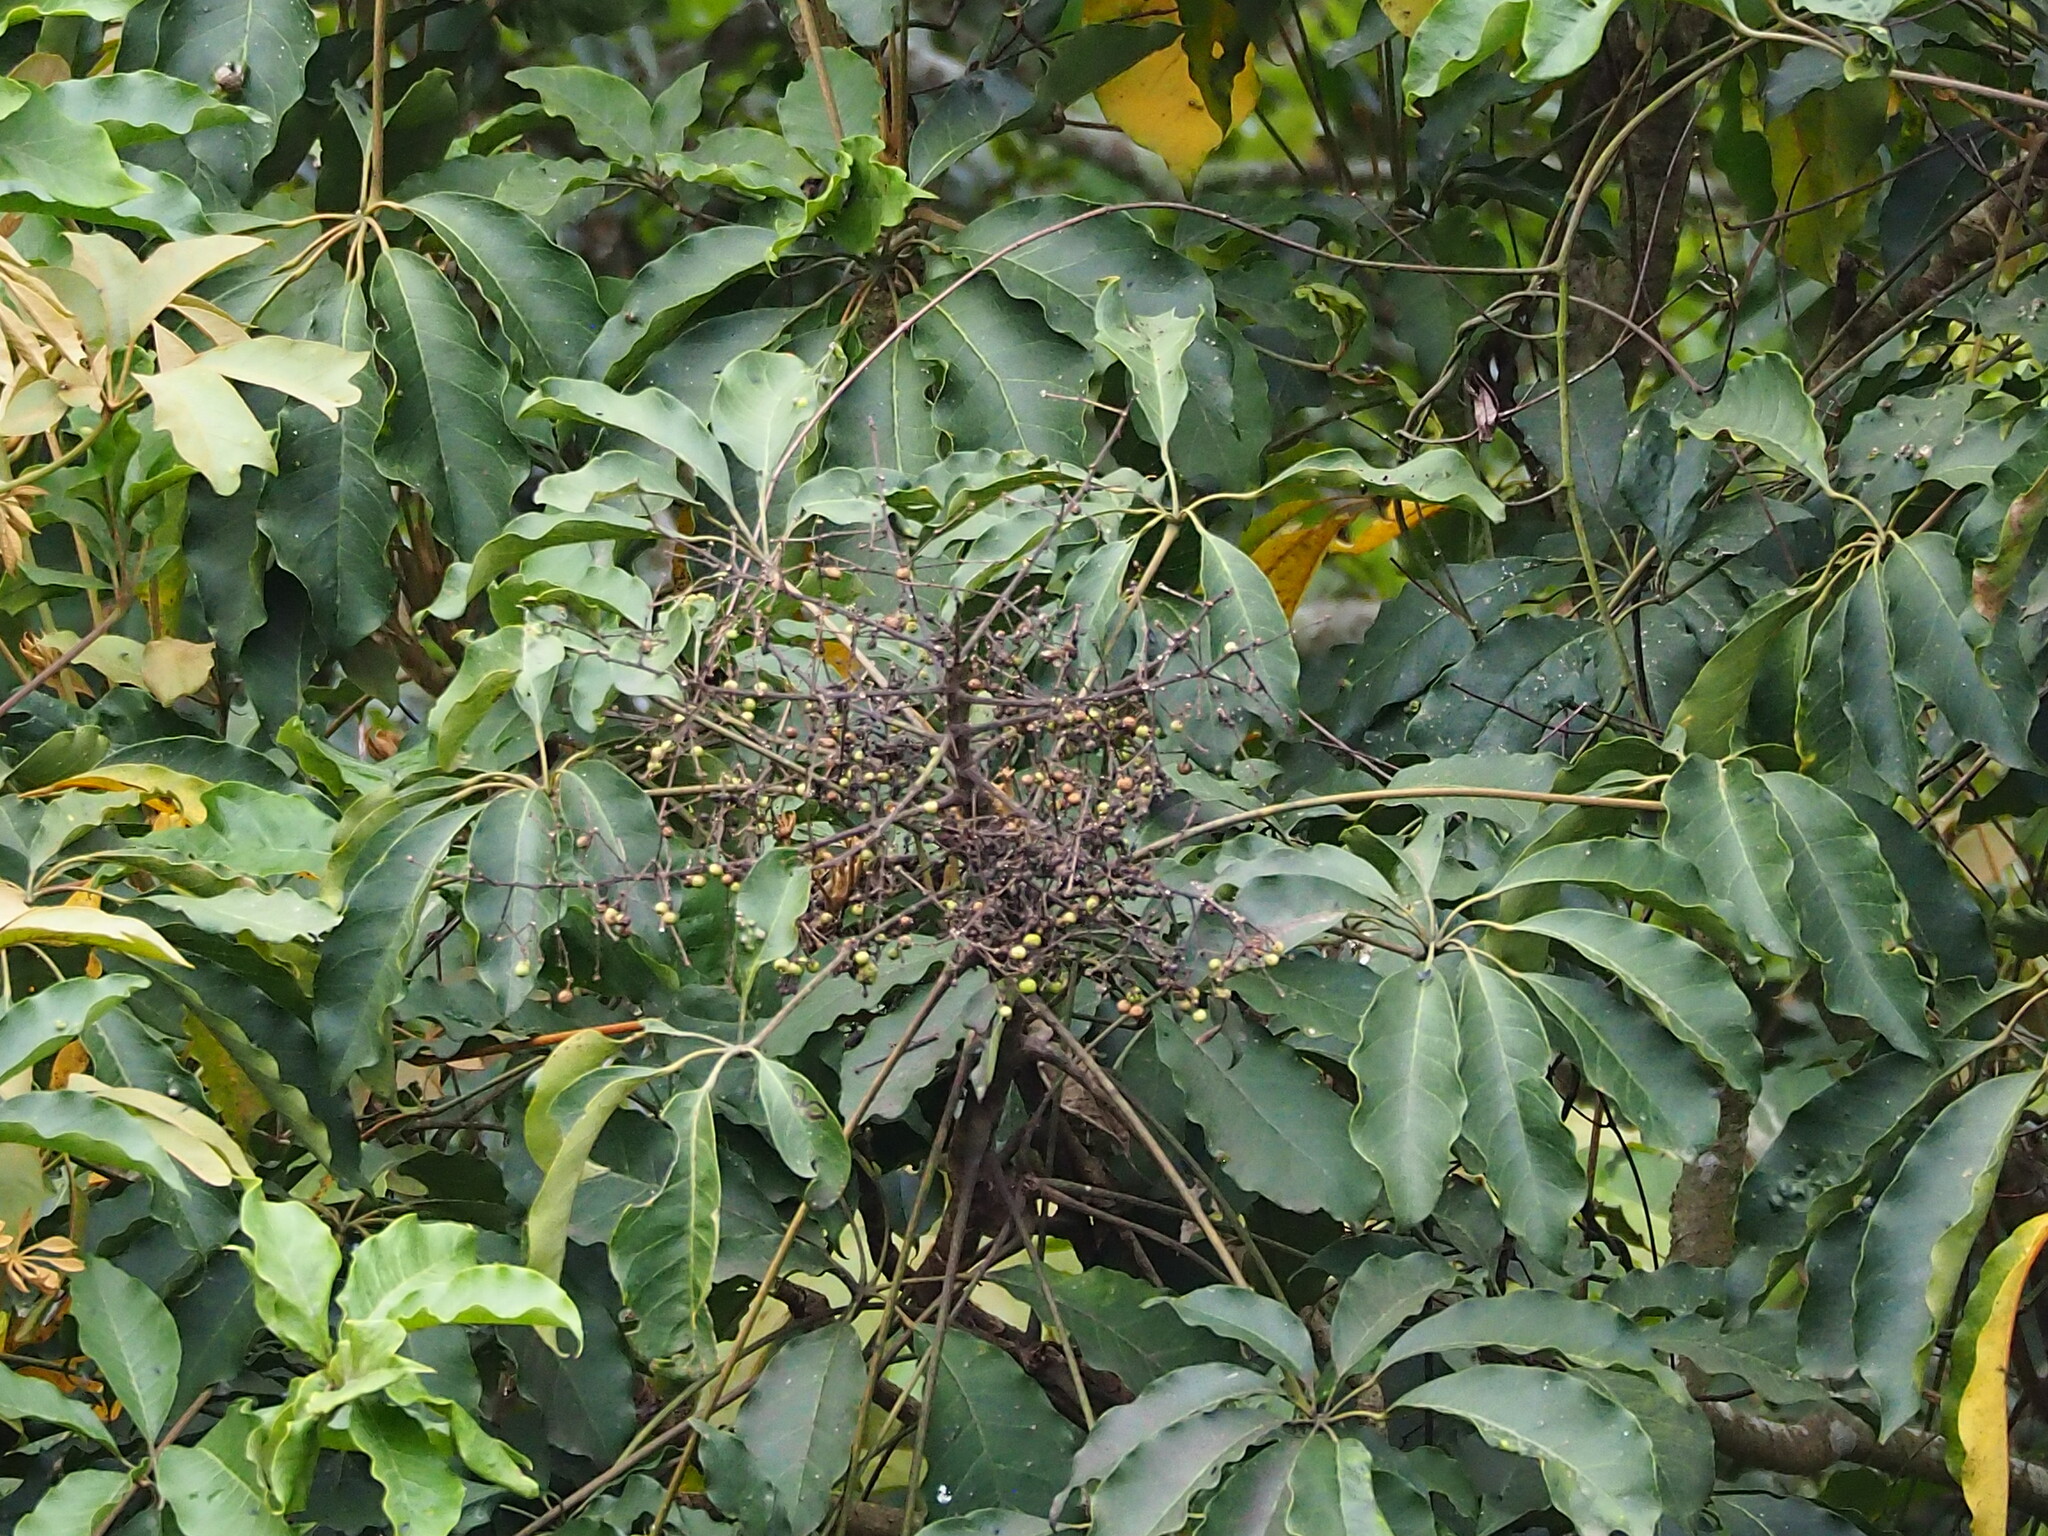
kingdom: Plantae
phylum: Tracheophyta
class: Magnoliopsida
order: Apiales
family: Araliaceae
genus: Heptapleurum
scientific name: Heptapleurum heptaphyllum
